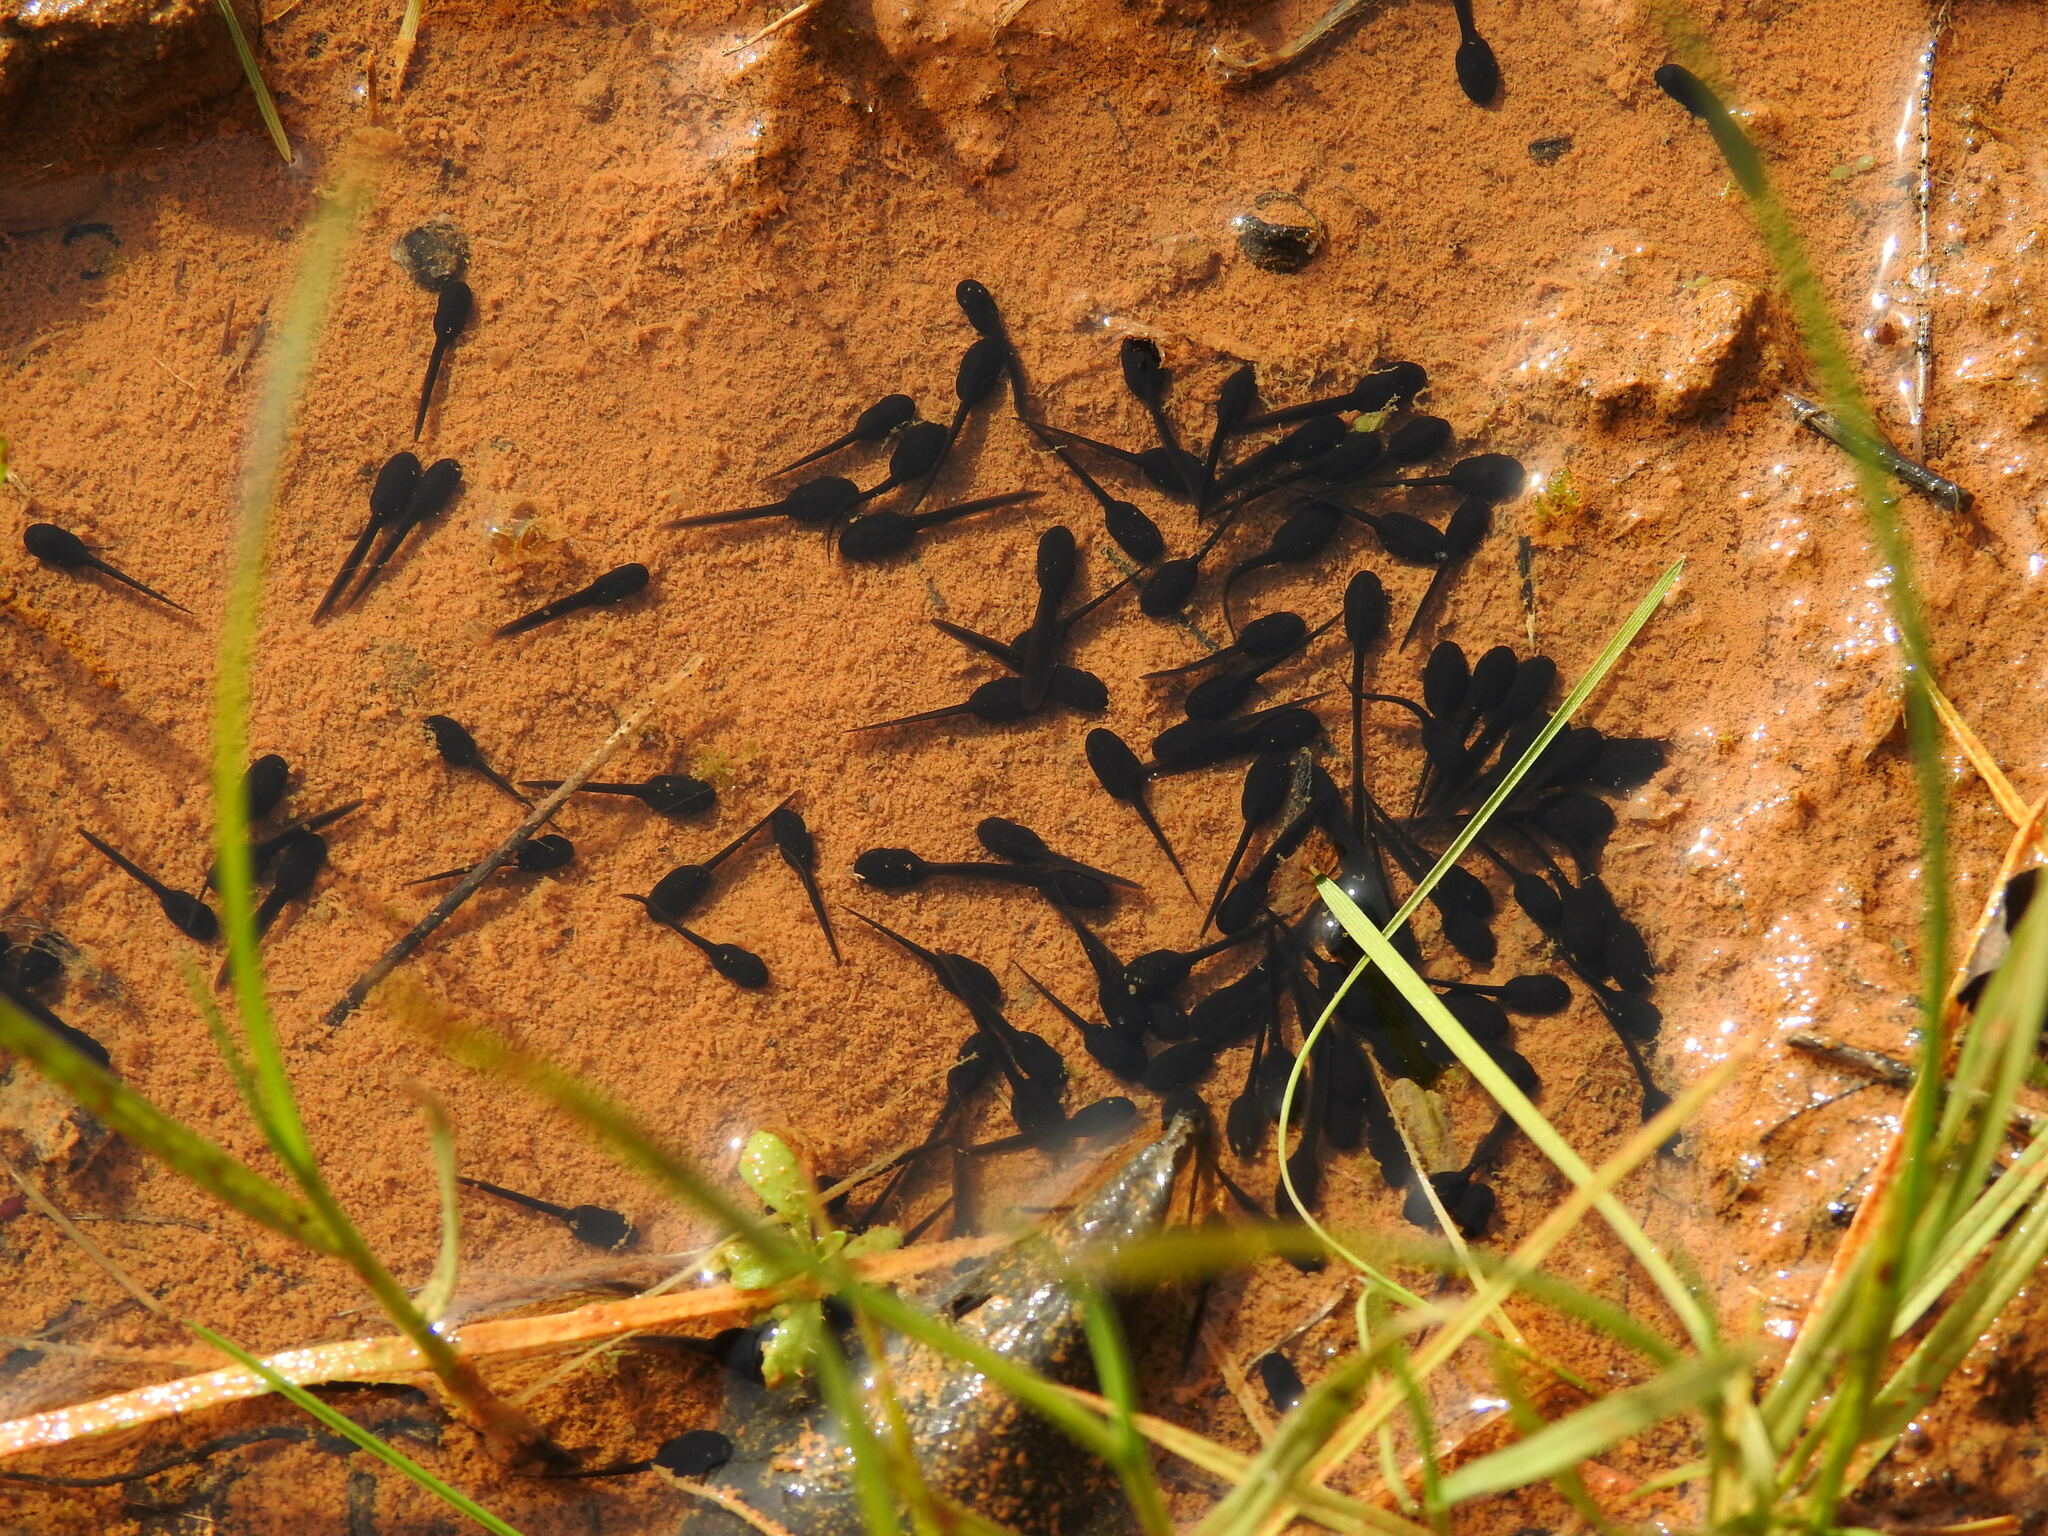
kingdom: Animalia
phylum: Chordata
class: Amphibia
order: Anura
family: Bufonidae
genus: Epidalea
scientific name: Epidalea calamita
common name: Natterjack toad
